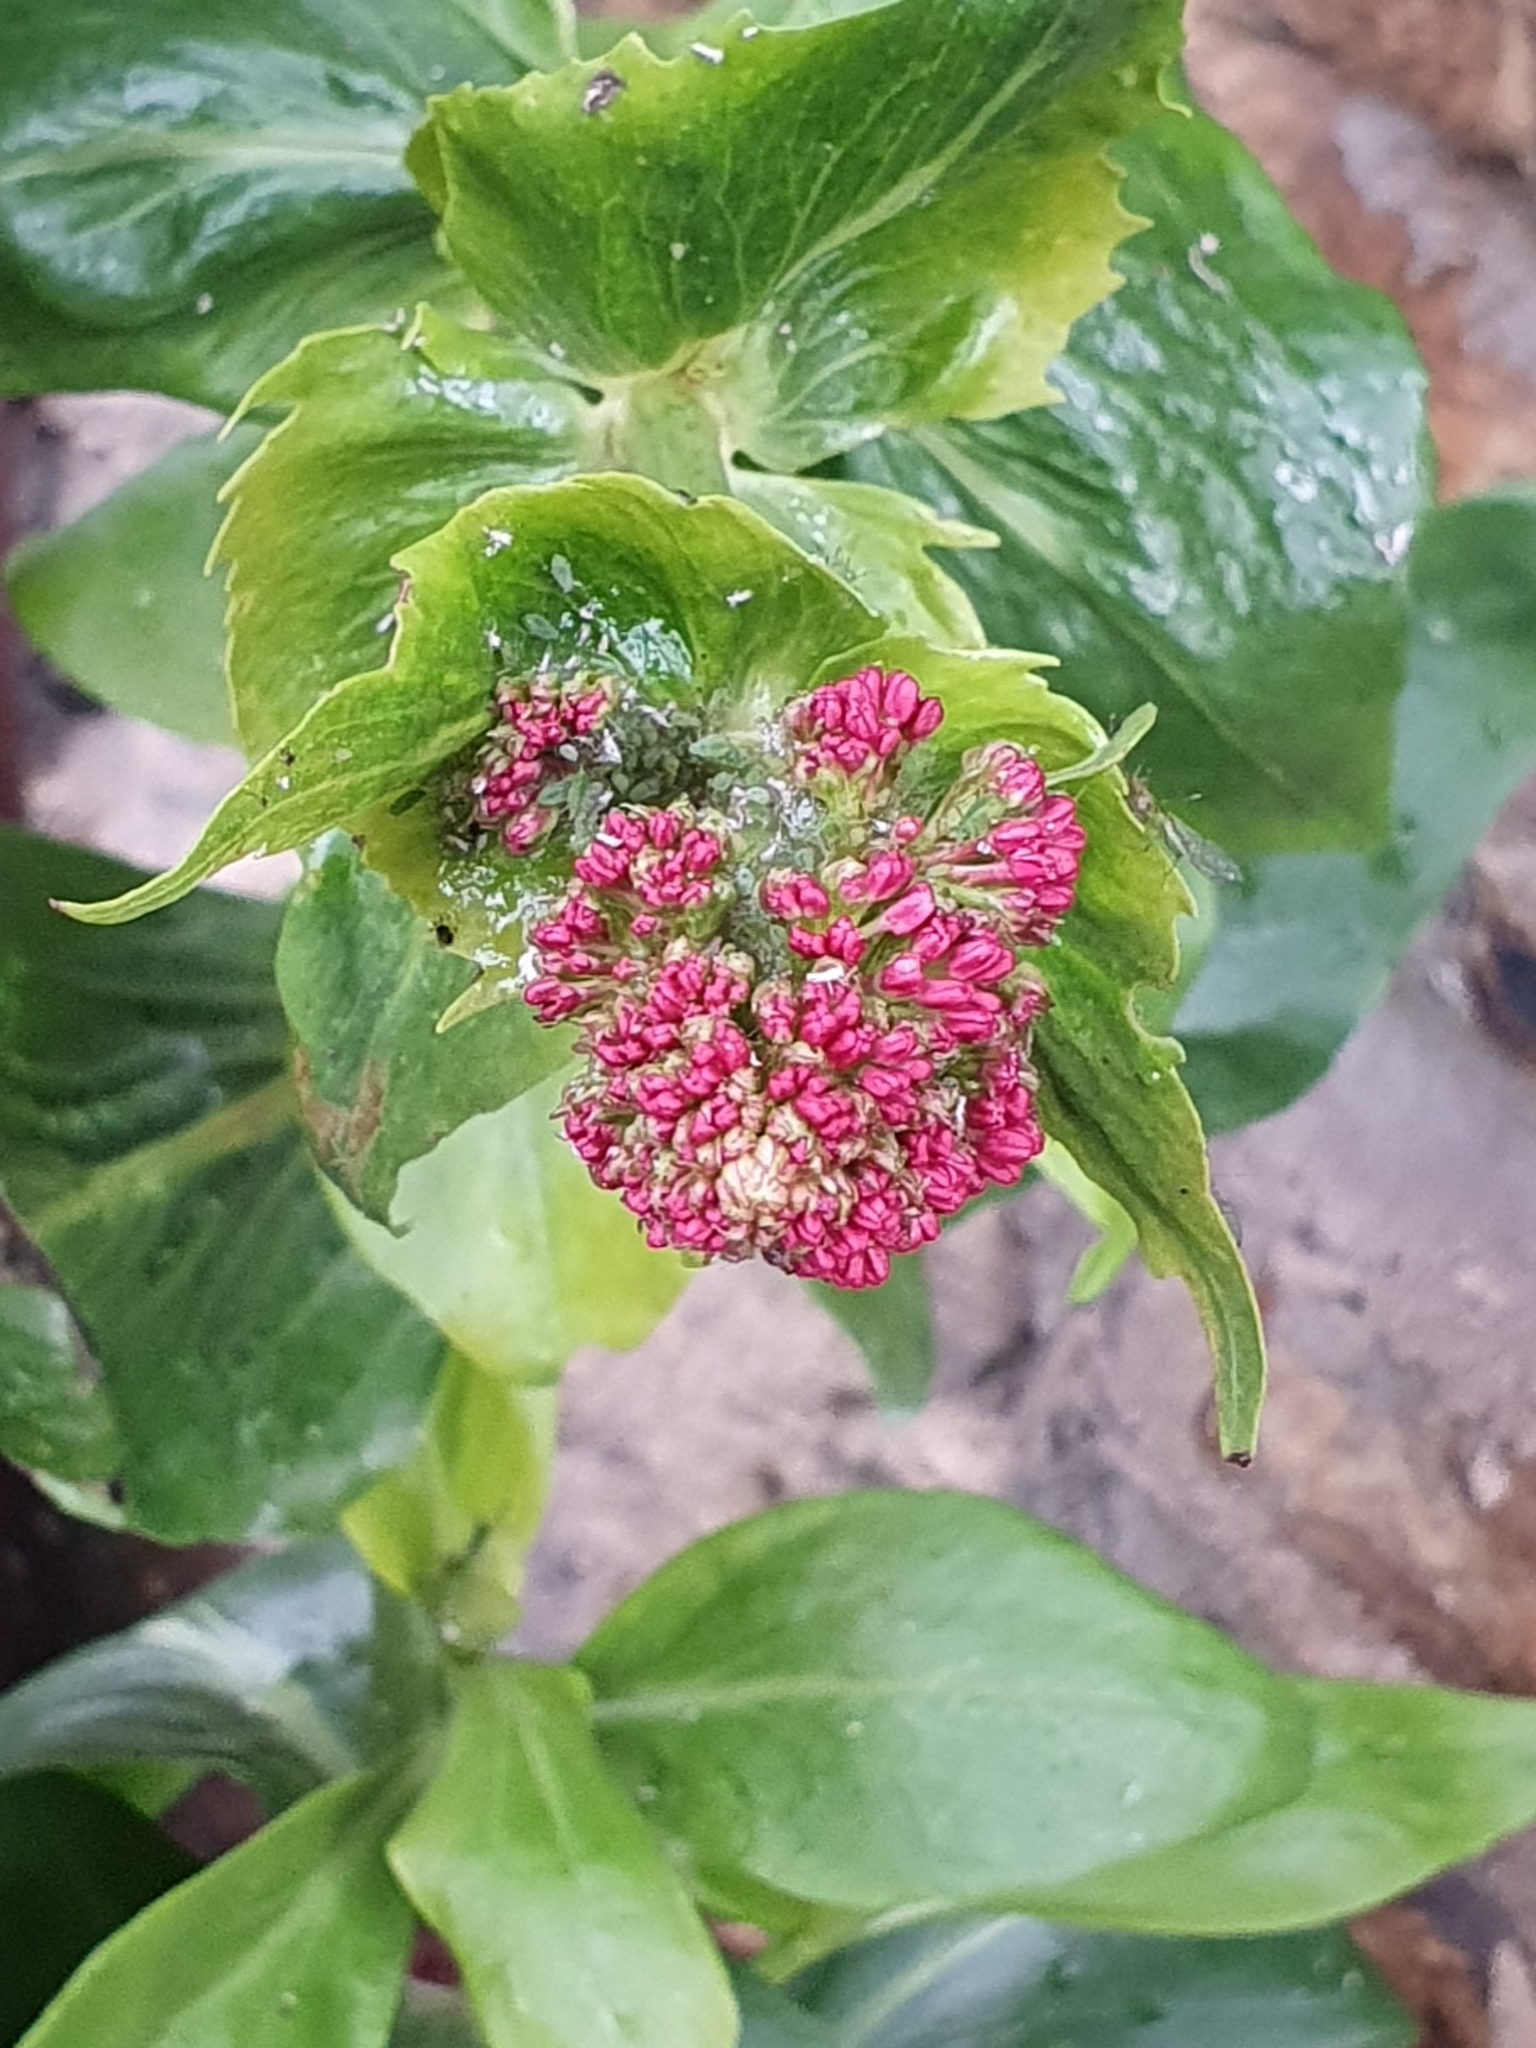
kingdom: Plantae
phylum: Tracheophyta
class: Magnoliopsida
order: Dipsacales
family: Caprifoliaceae
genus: Centranthus
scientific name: Centranthus ruber
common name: Red valerian
